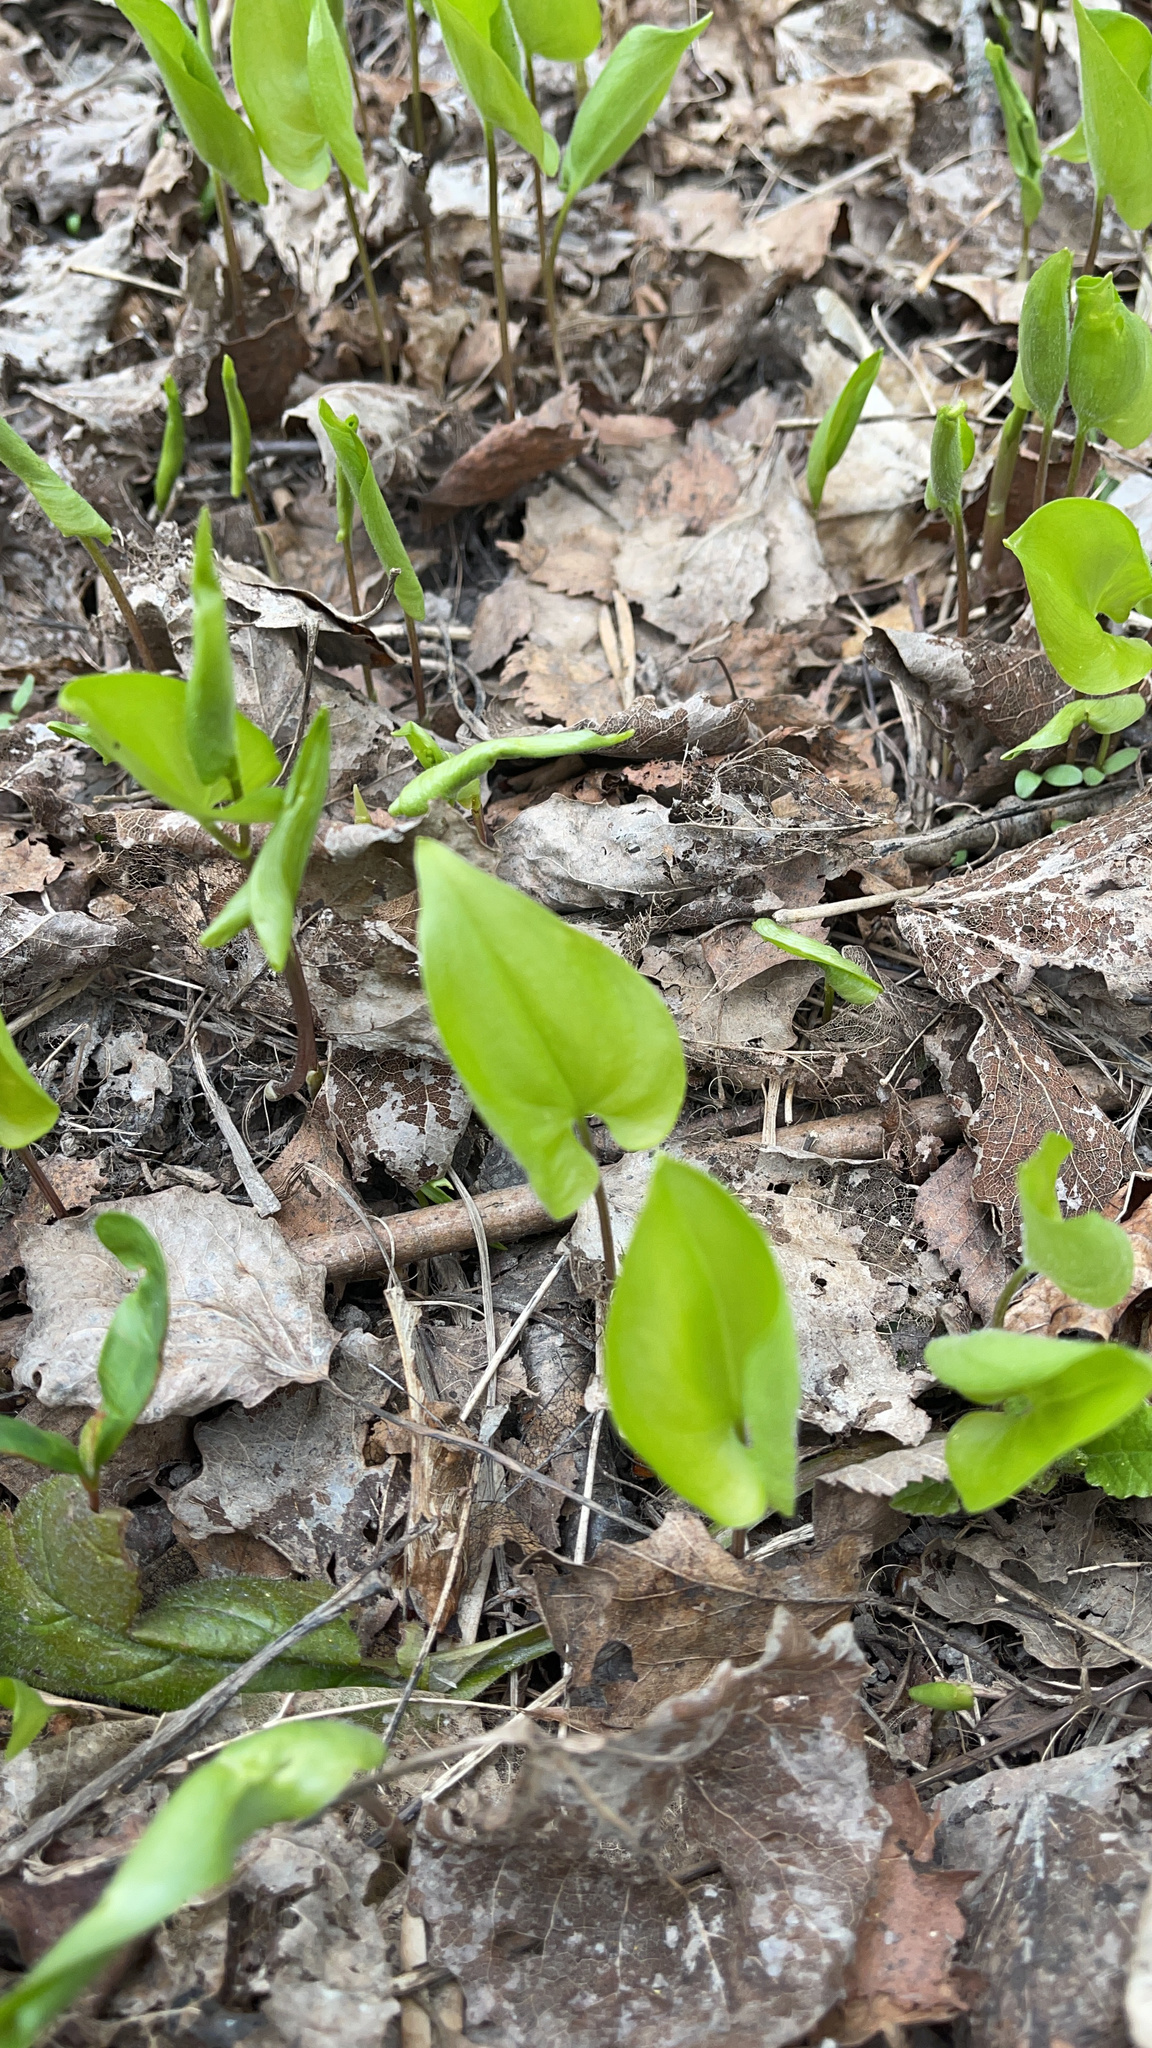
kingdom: Plantae
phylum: Tracheophyta
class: Liliopsida
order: Asparagales
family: Asparagaceae
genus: Maianthemum
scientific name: Maianthemum bifolium
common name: May lily
